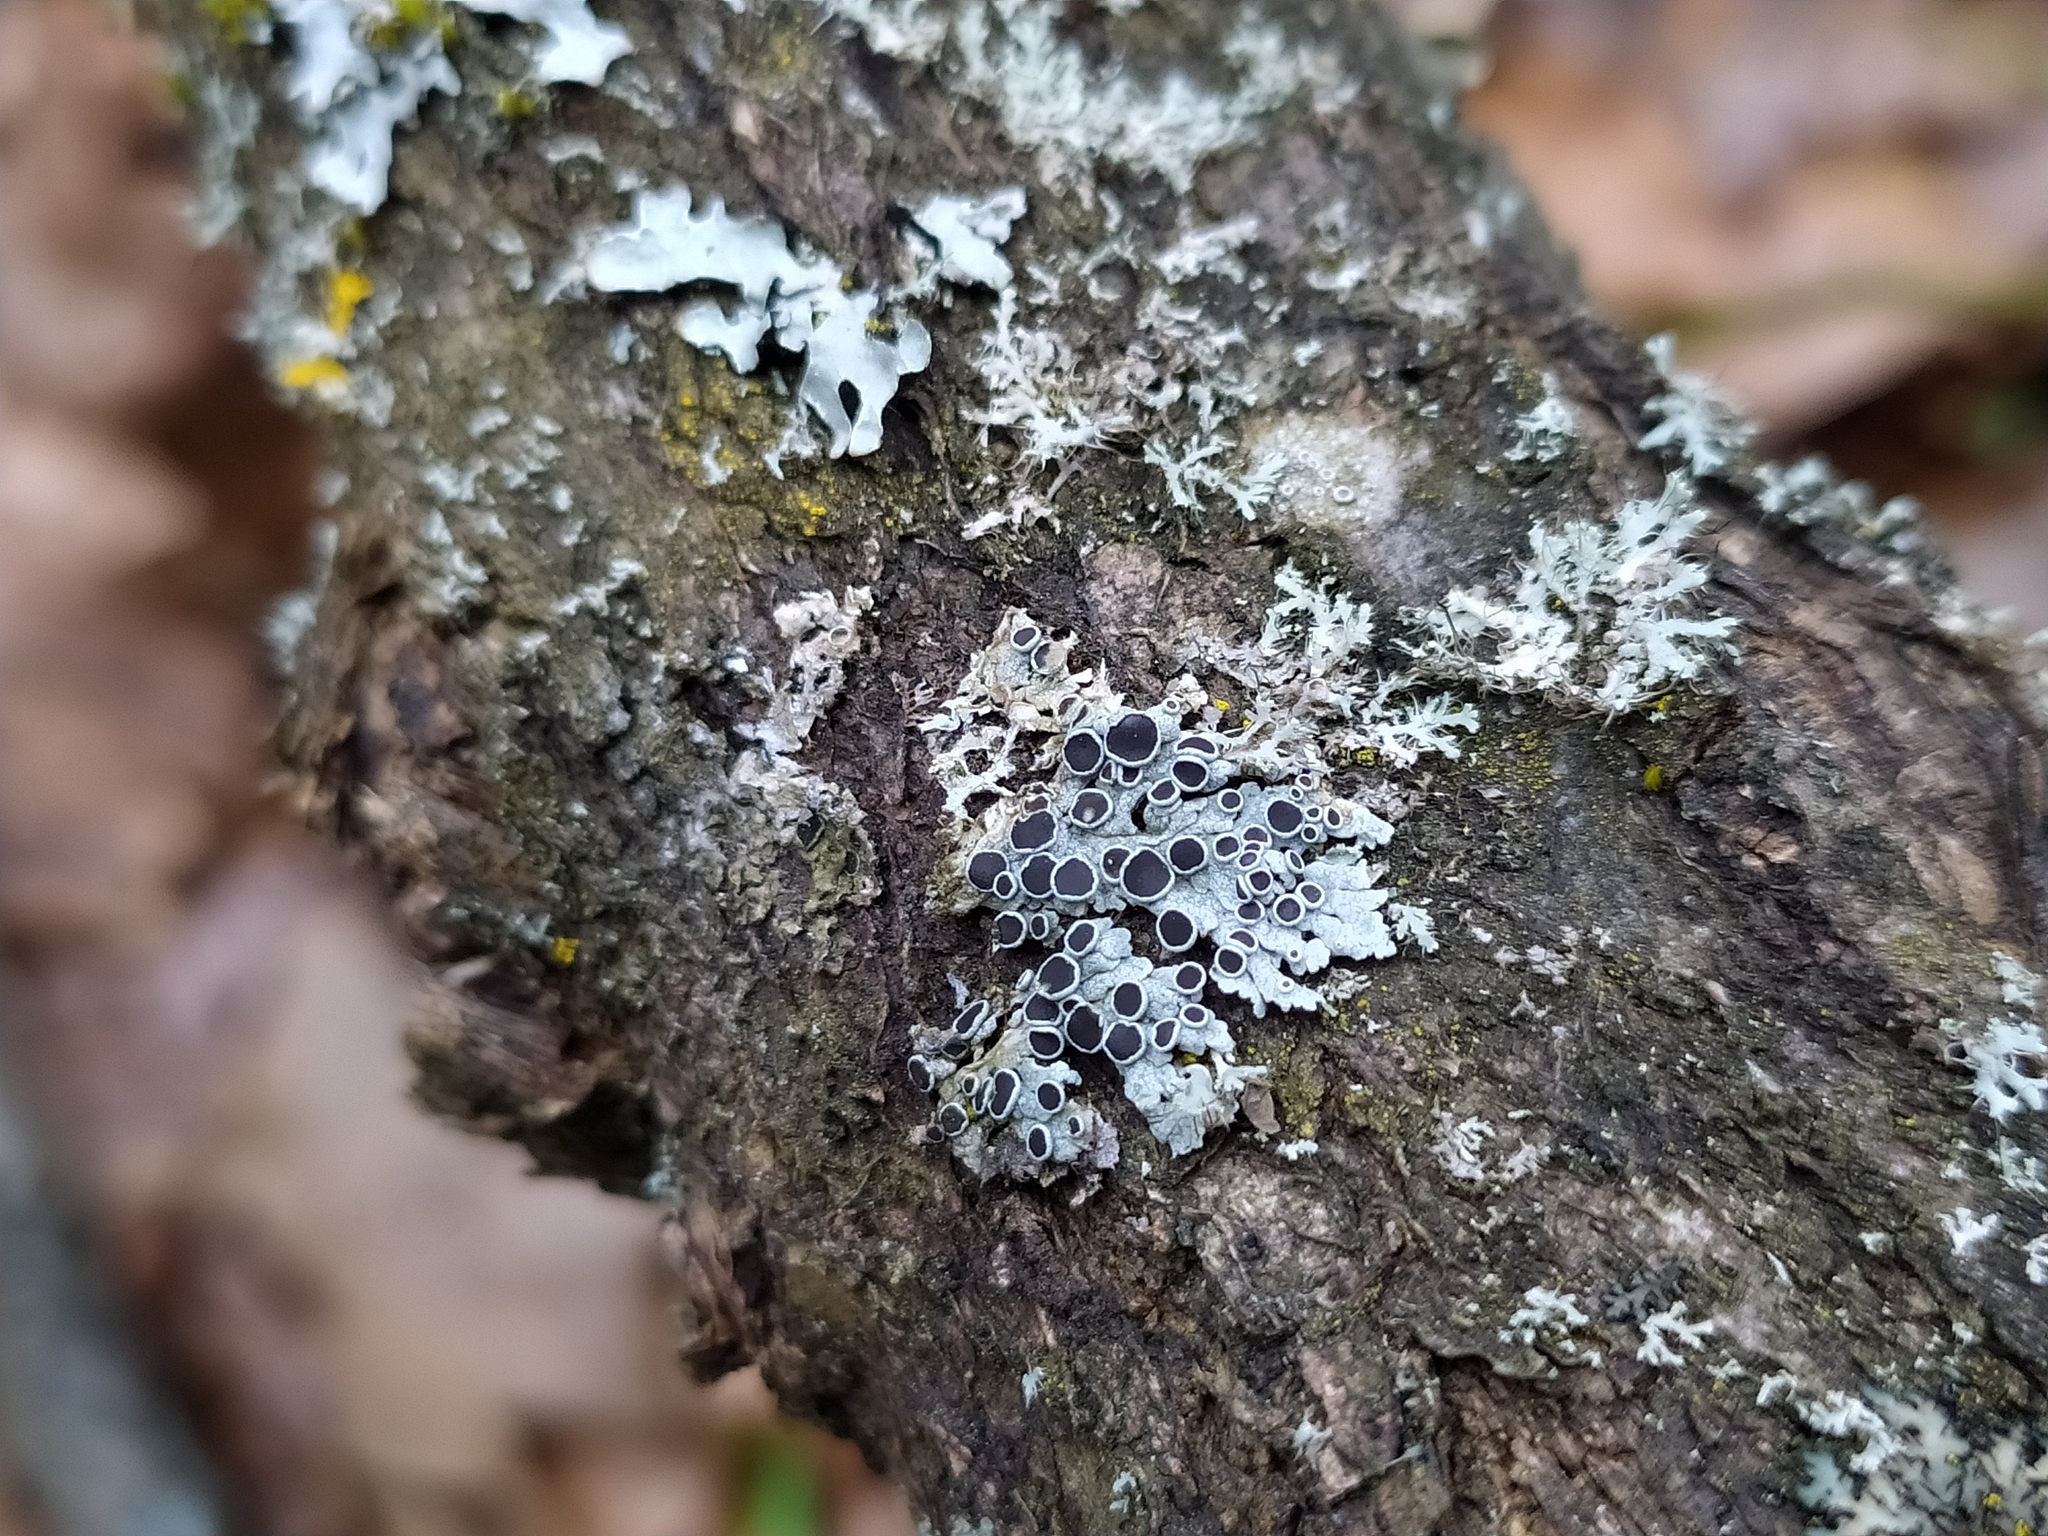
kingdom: Fungi
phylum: Ascomycota
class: Lecanoromycetes
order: Caliciales
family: Physciaceae
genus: Physcia
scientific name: Physcia aipolia
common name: Hoary rosette lichen
